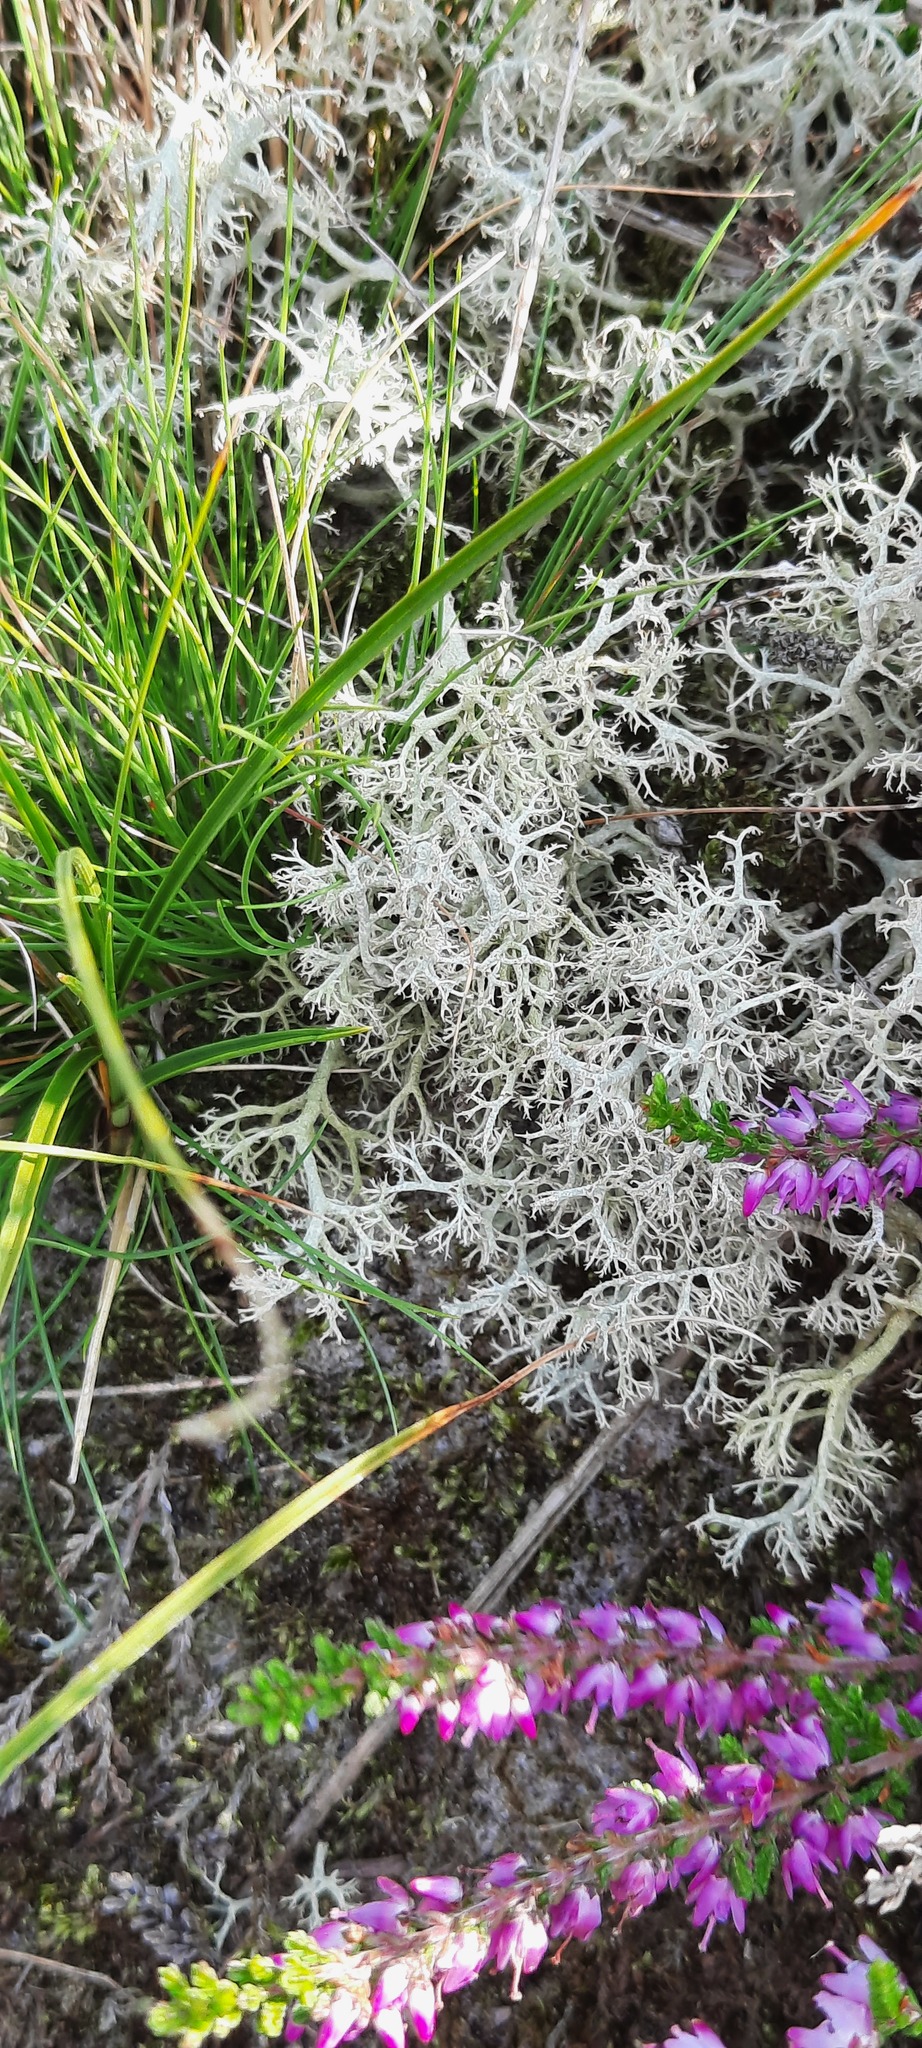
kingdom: Fungi
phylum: Ascomycota
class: Lecanoromycetes
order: Lecanorales
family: Cladoniaceae
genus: Cladonia
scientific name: Cladonia portentosa
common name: Reindeer lichen
